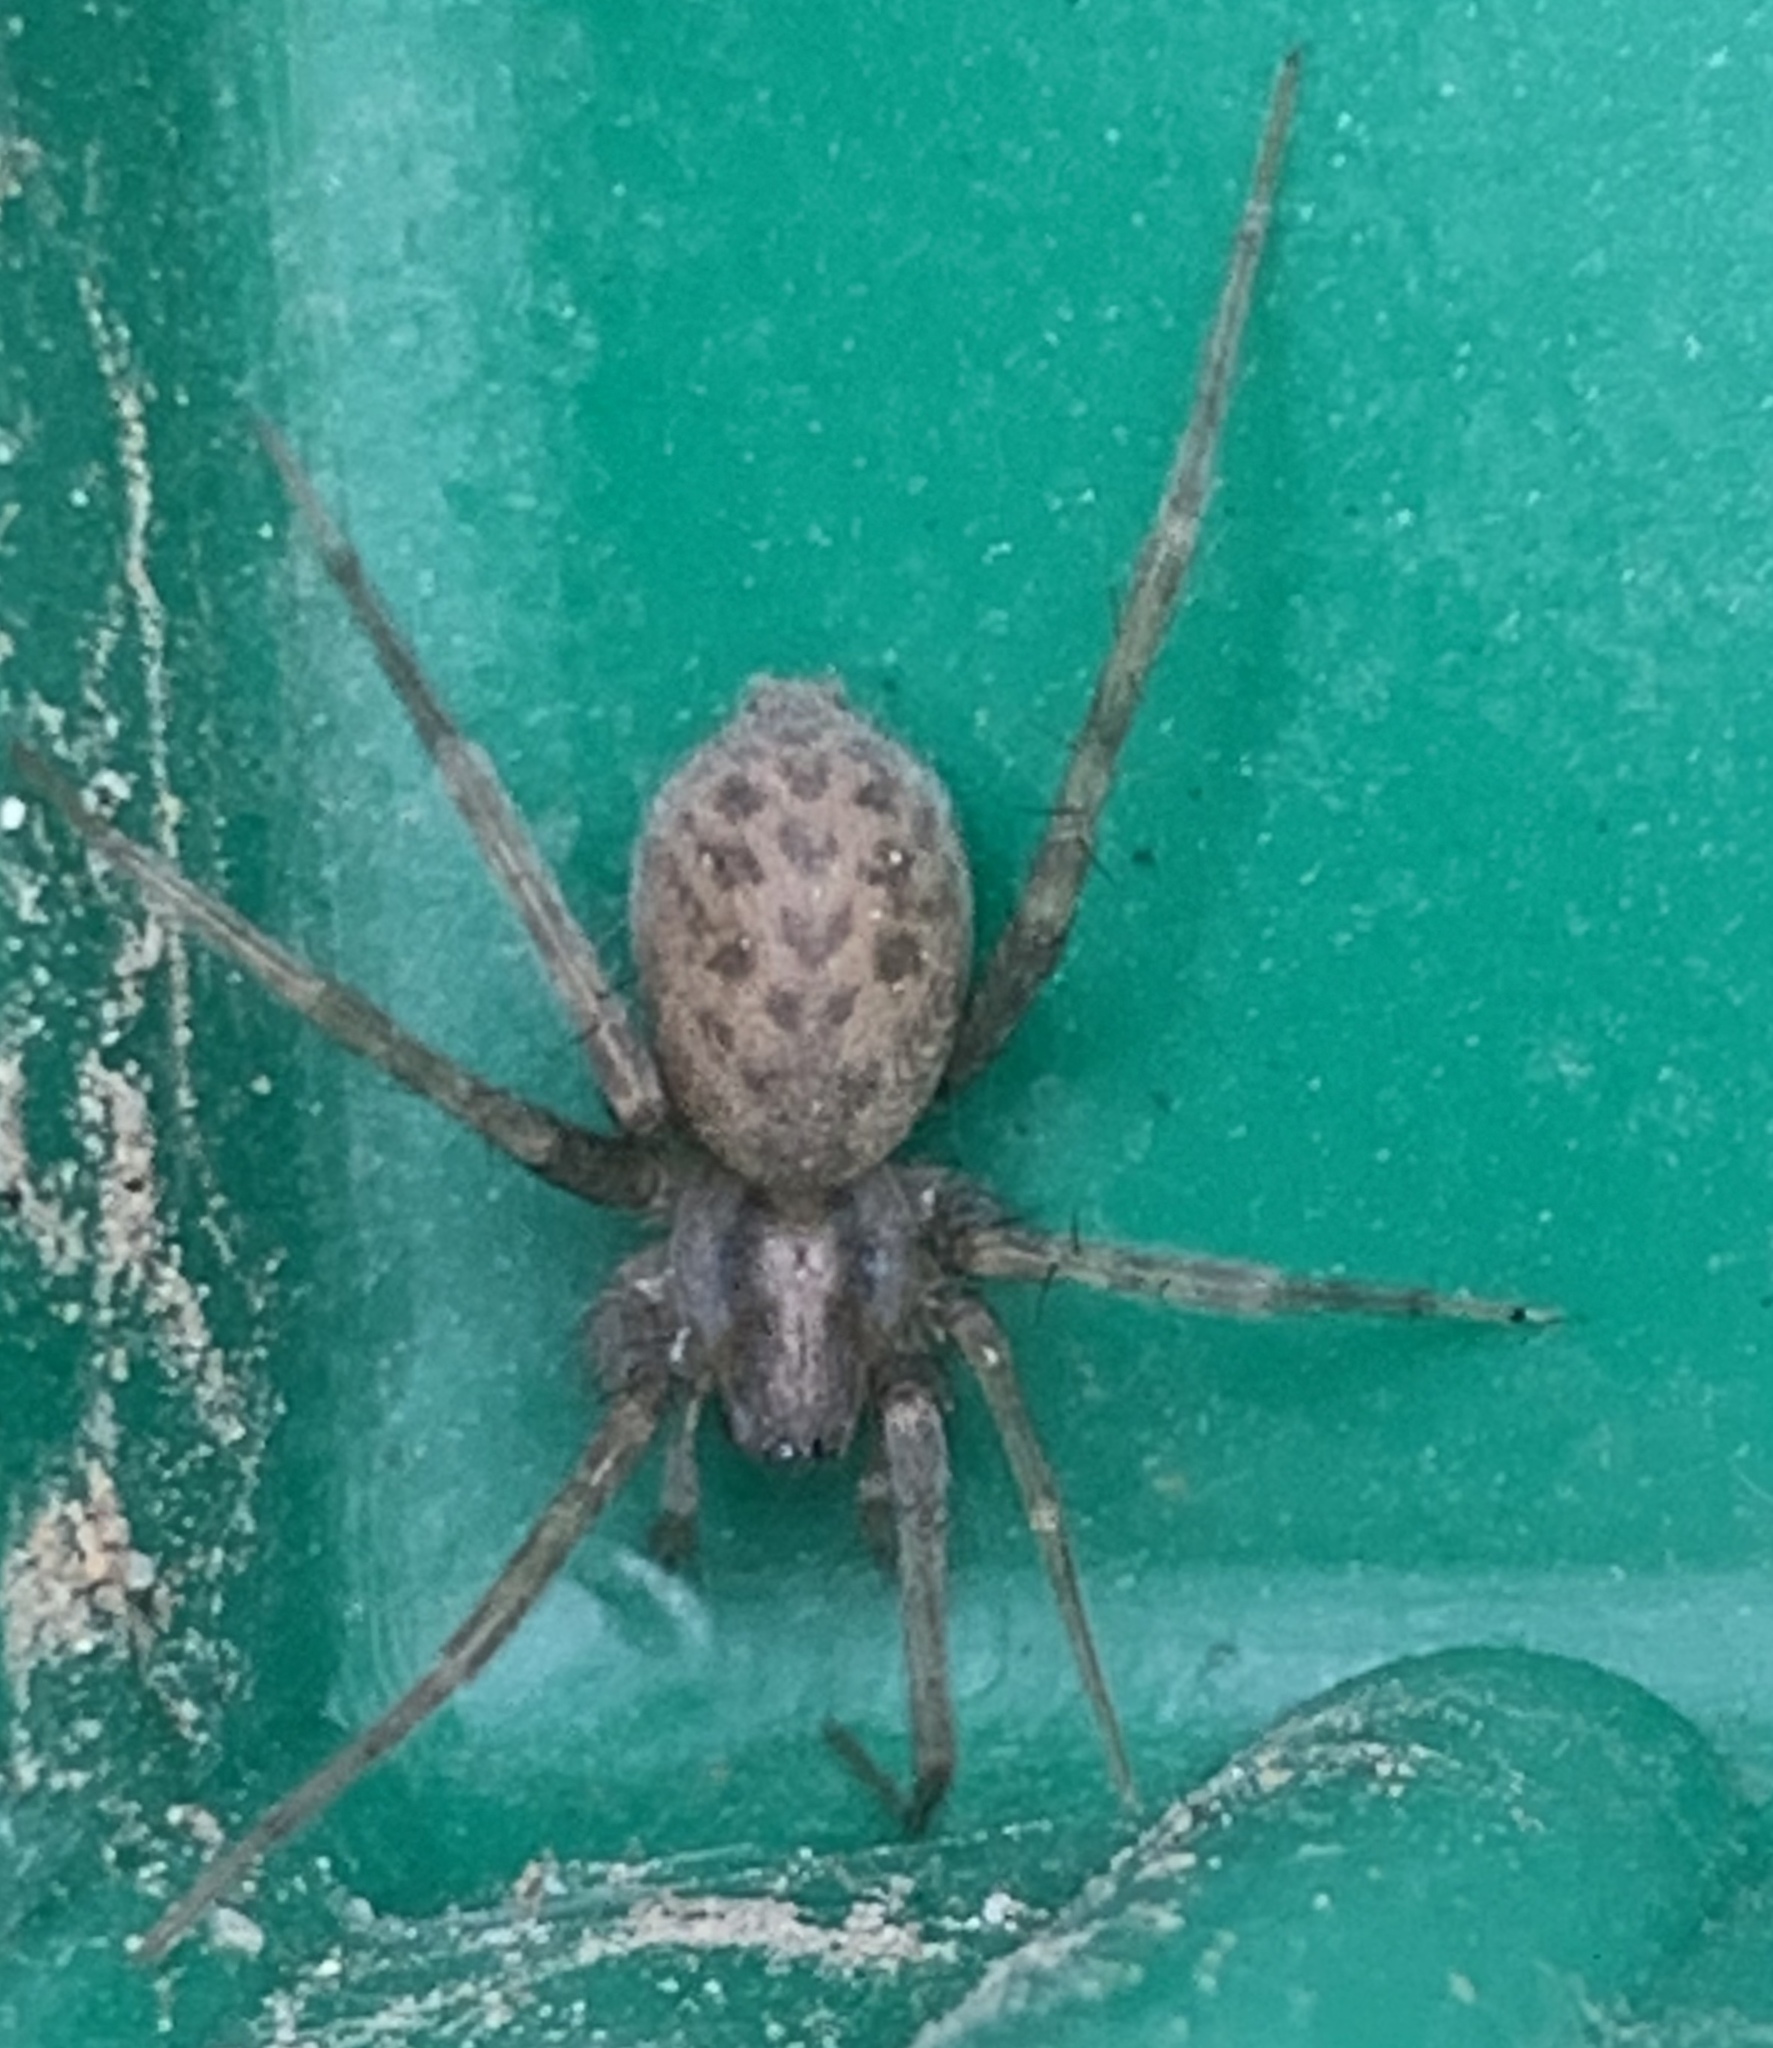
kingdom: Animalia
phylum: Arthropoda
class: Arachnida
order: Araneae
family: Agelenidae
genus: Tegenaria
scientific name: Tegenaria domestica
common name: Barn funnel weaver
